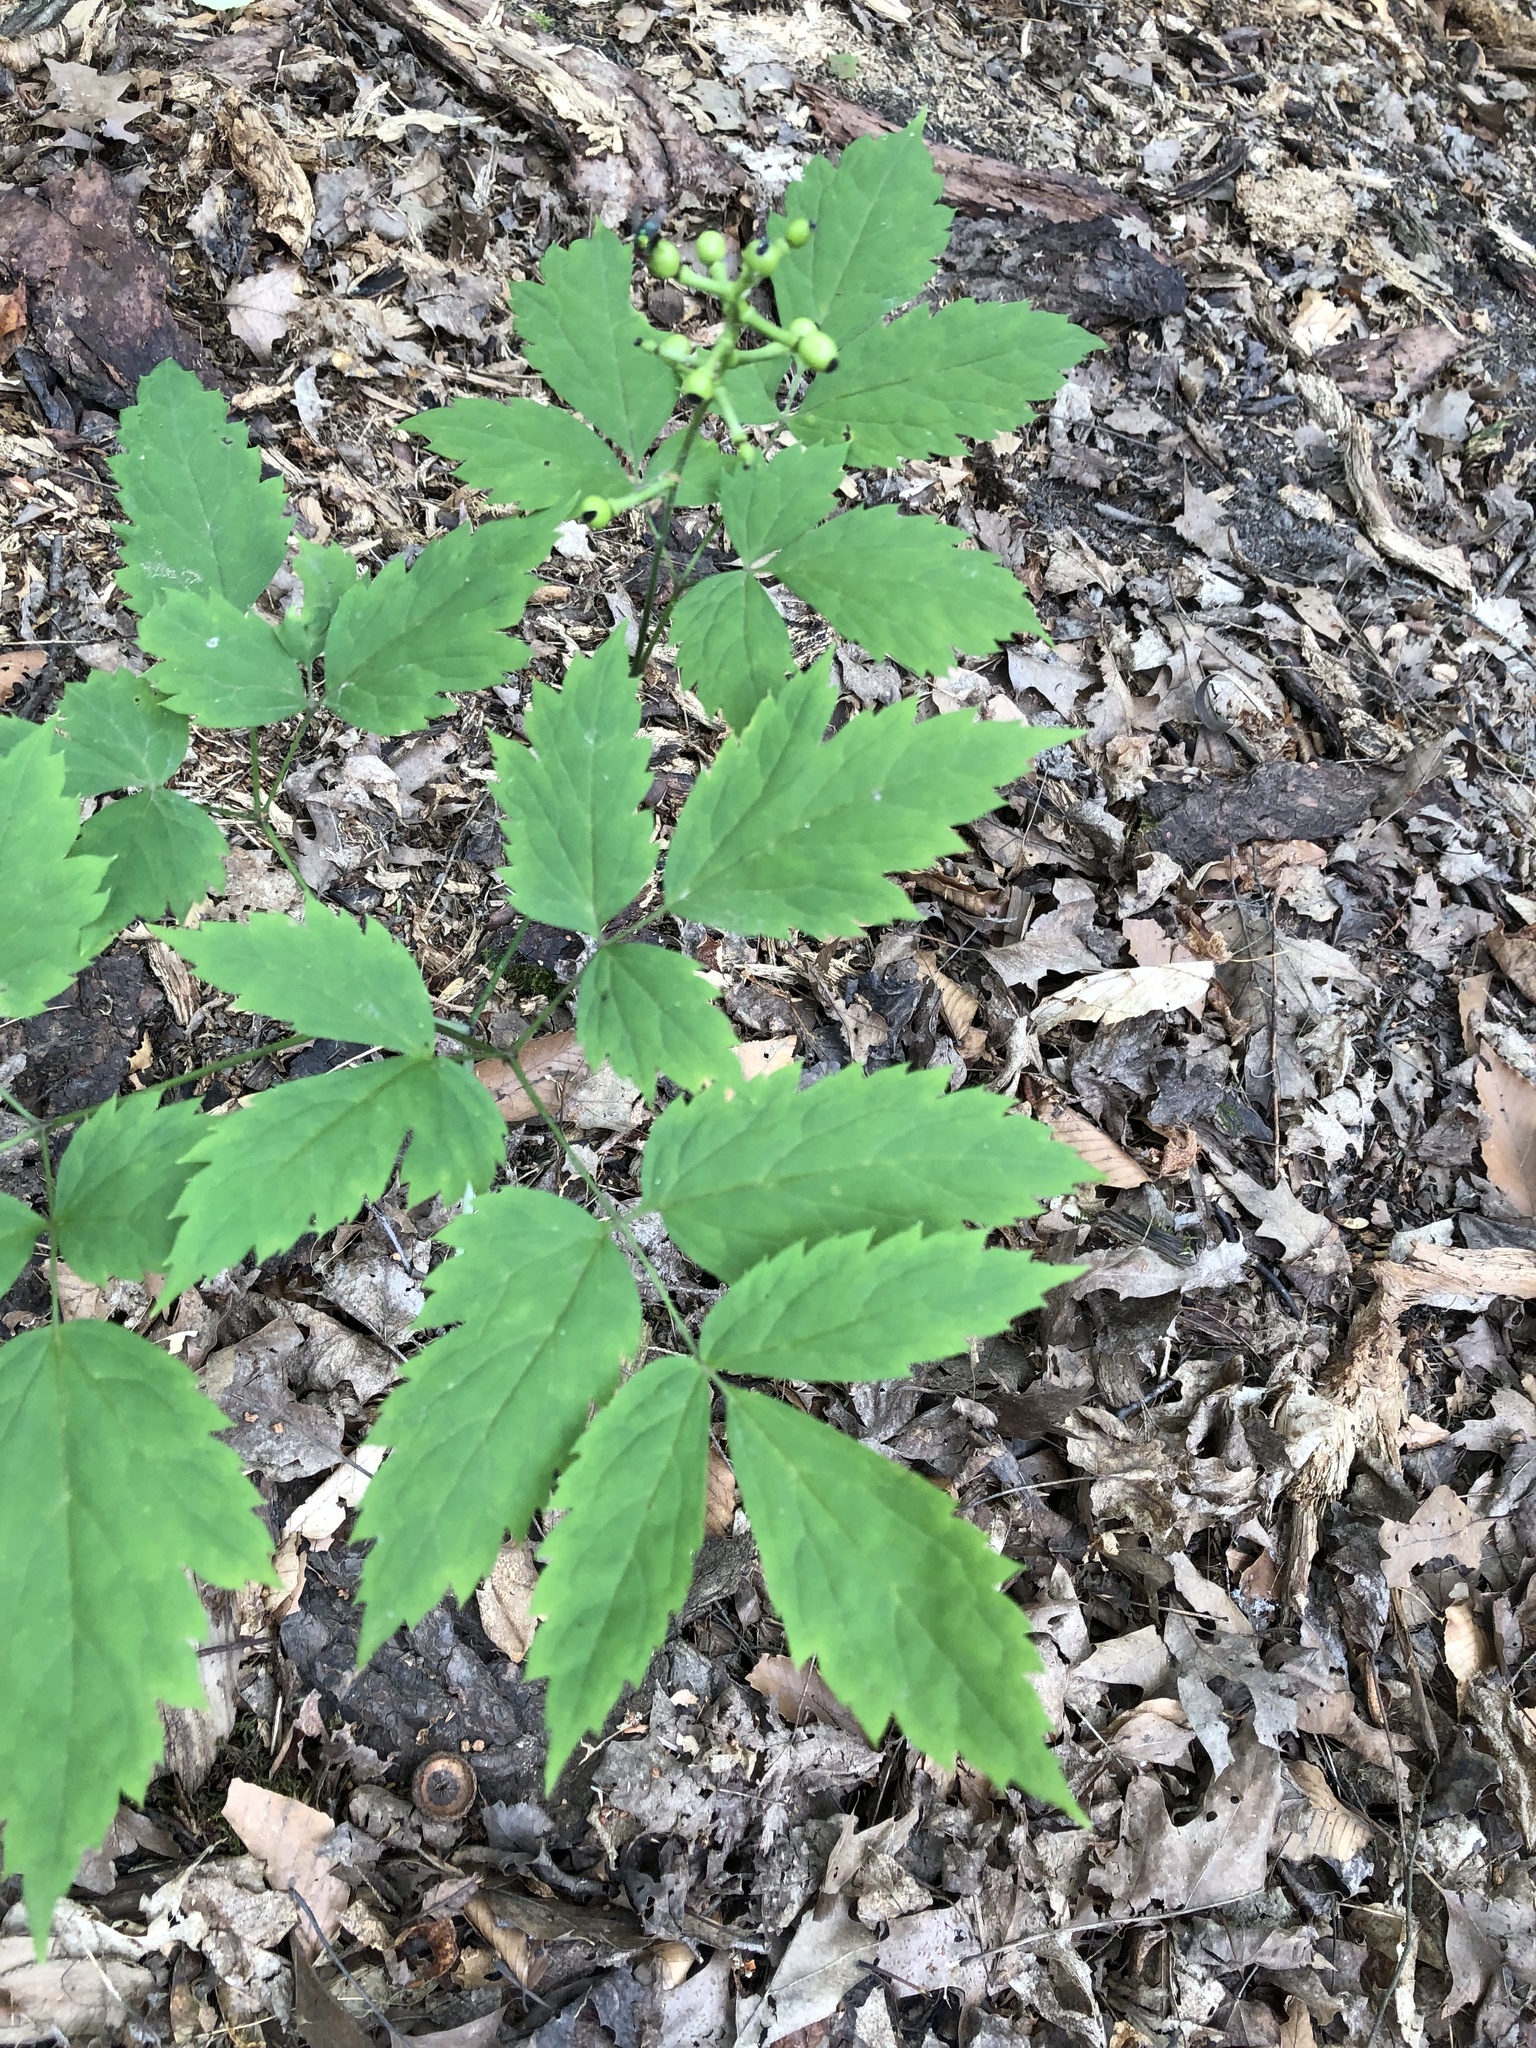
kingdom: Plantae
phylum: Tracheophyta
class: Magnoliopsida
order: Ranunculales
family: Ranunculaceae
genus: Actaea
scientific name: Actaea pachypoda
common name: Doll's-eyes
